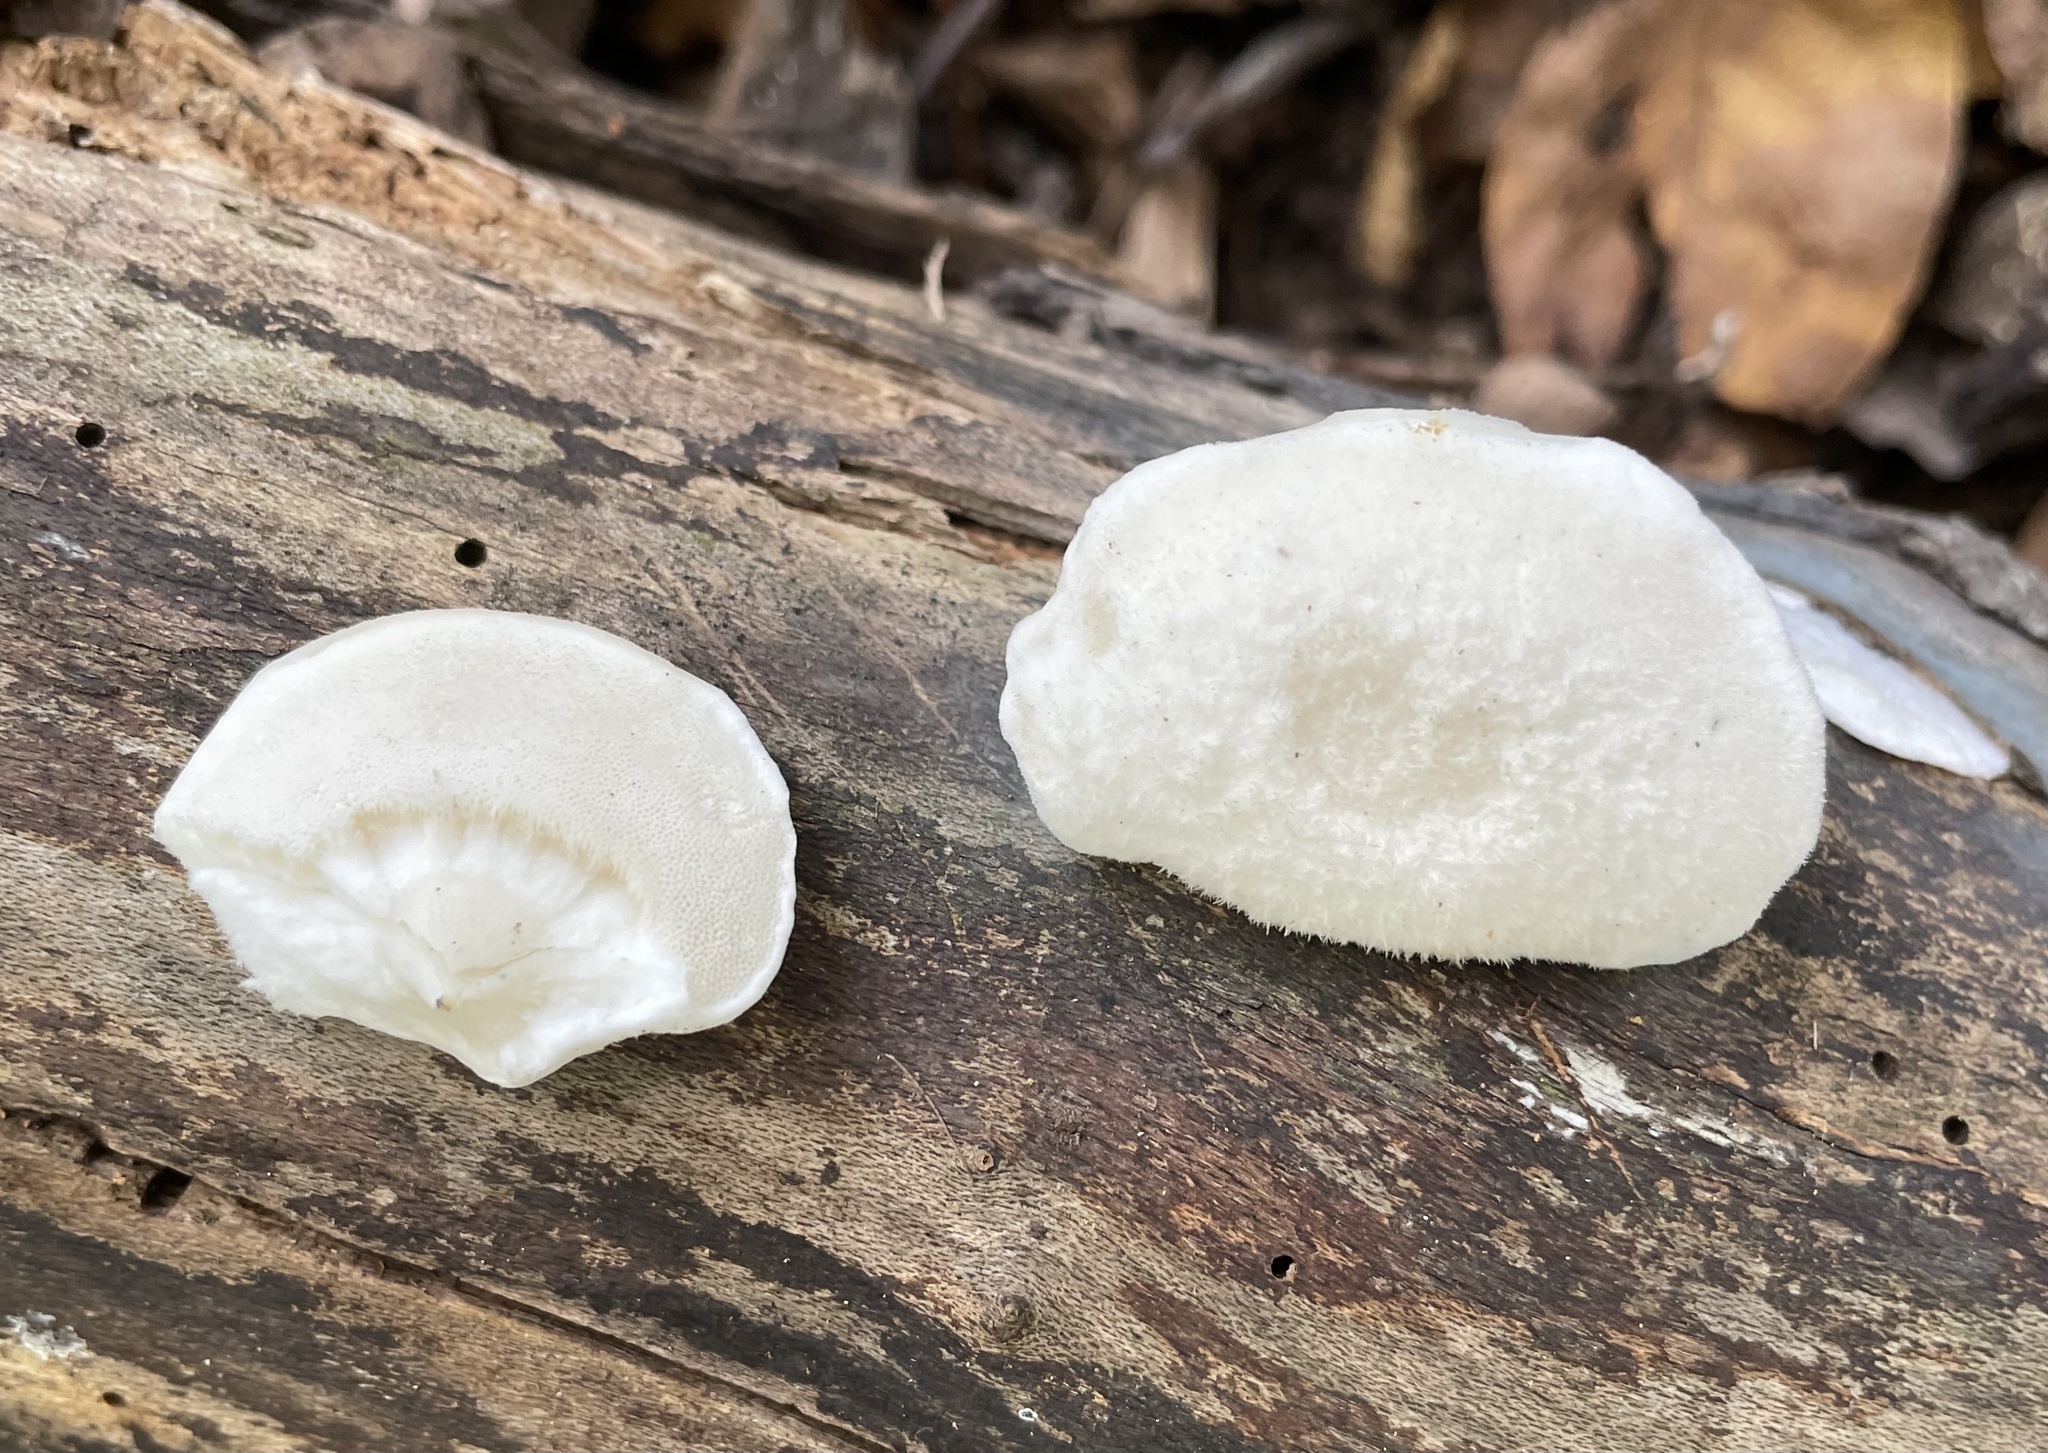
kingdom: Fungi
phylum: Basidiomycota
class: Agaricomycetes
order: Polyporales
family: Polyporaceae
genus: Cyanosporus
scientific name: Cyanosporus caesius
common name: Blue cheese polypore
